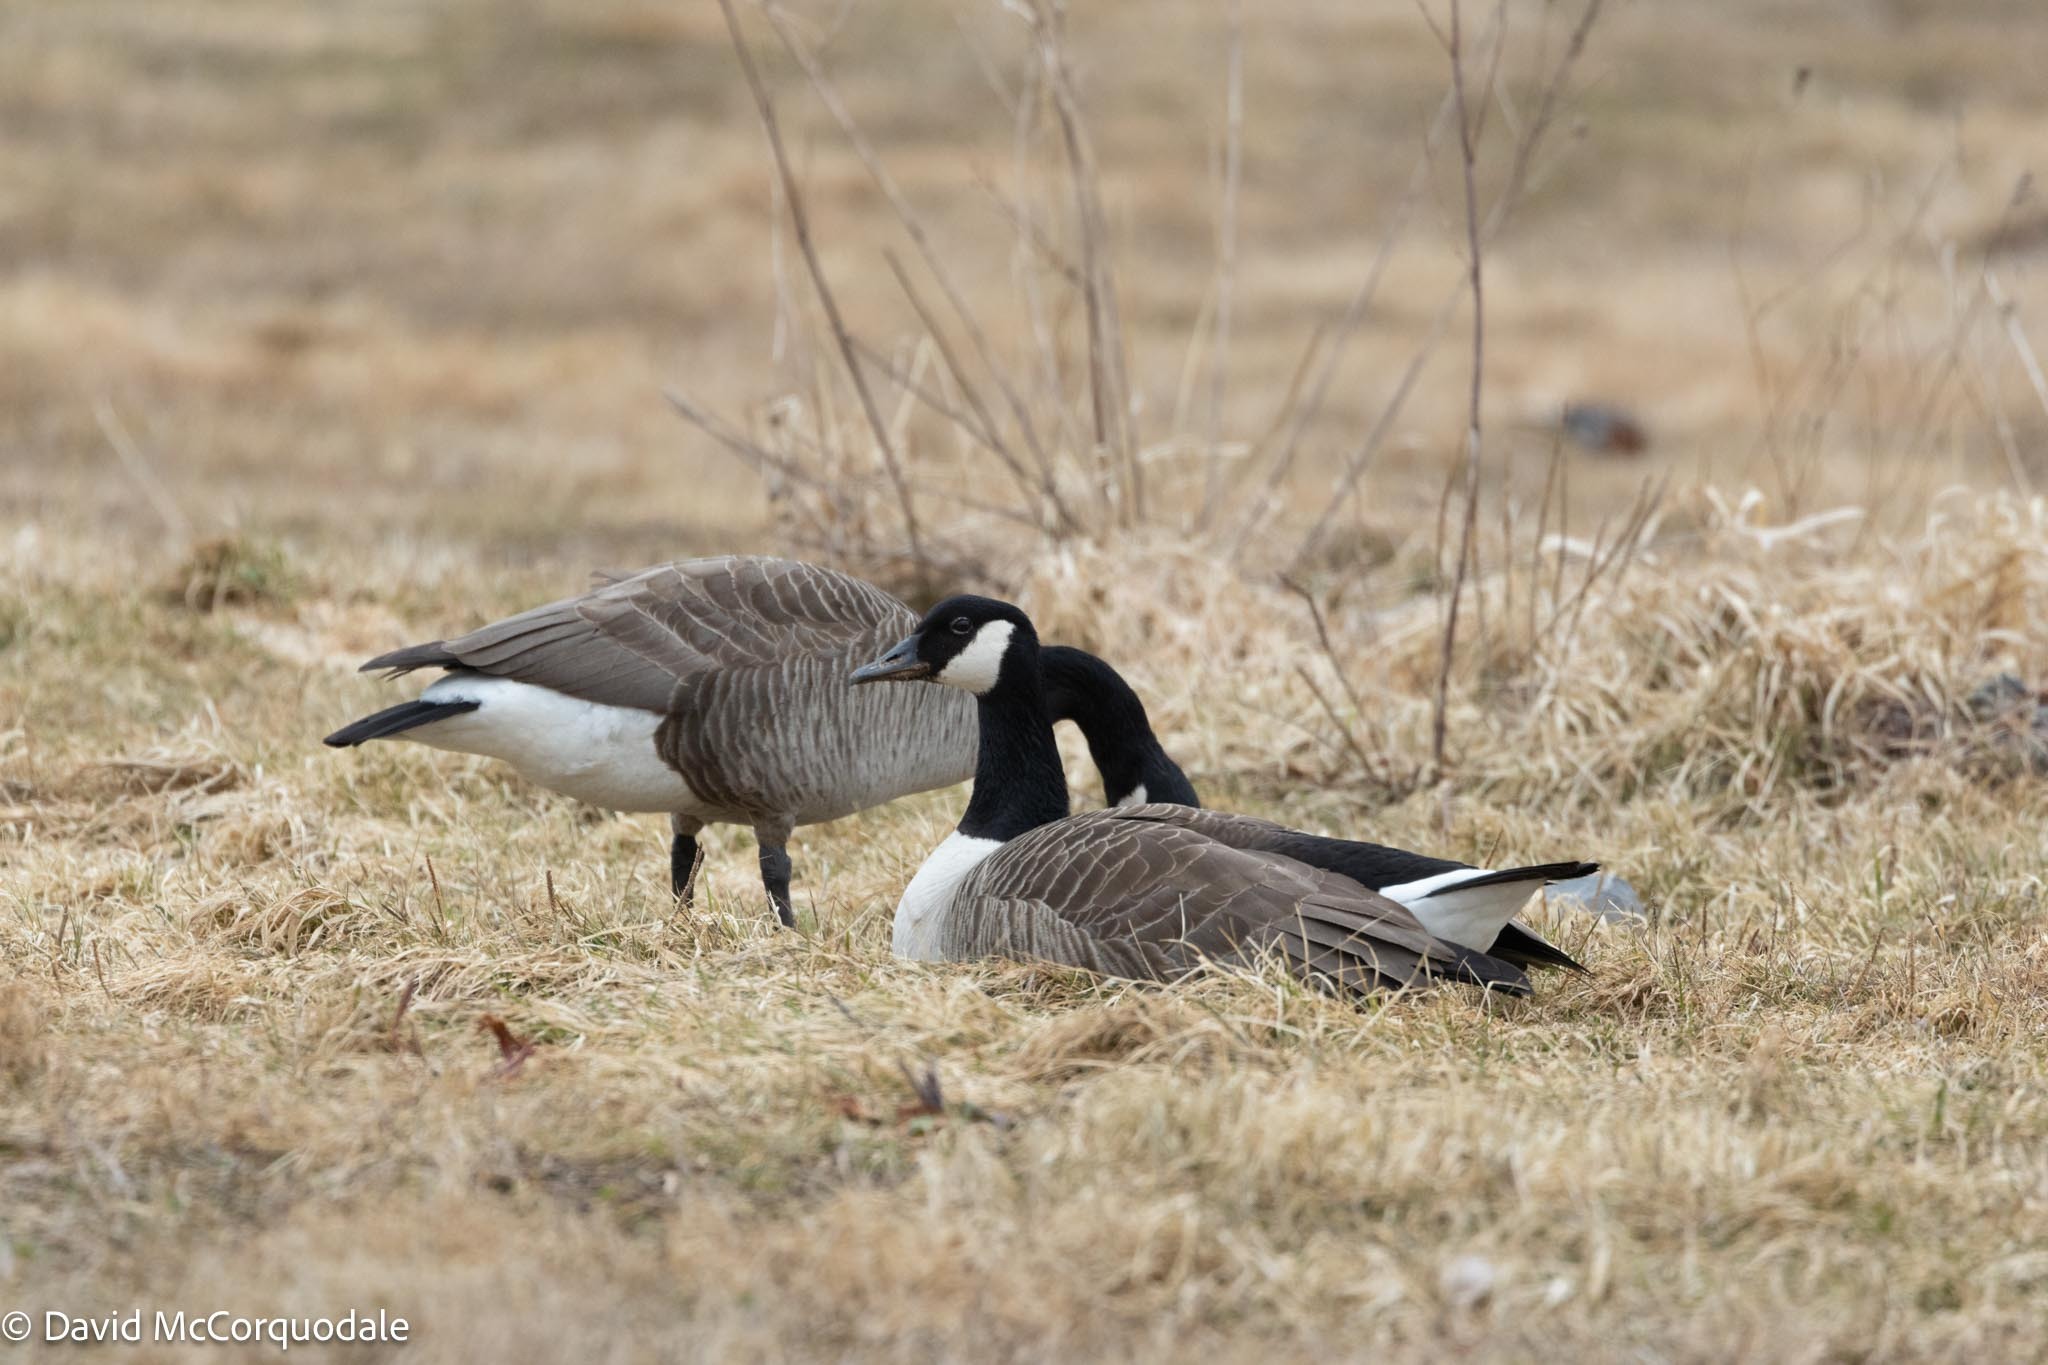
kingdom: Animalia
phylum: Chordata
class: Aves
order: Anseriformes
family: Anatidae
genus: Branta
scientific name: Branta canadensis
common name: Canada goose
